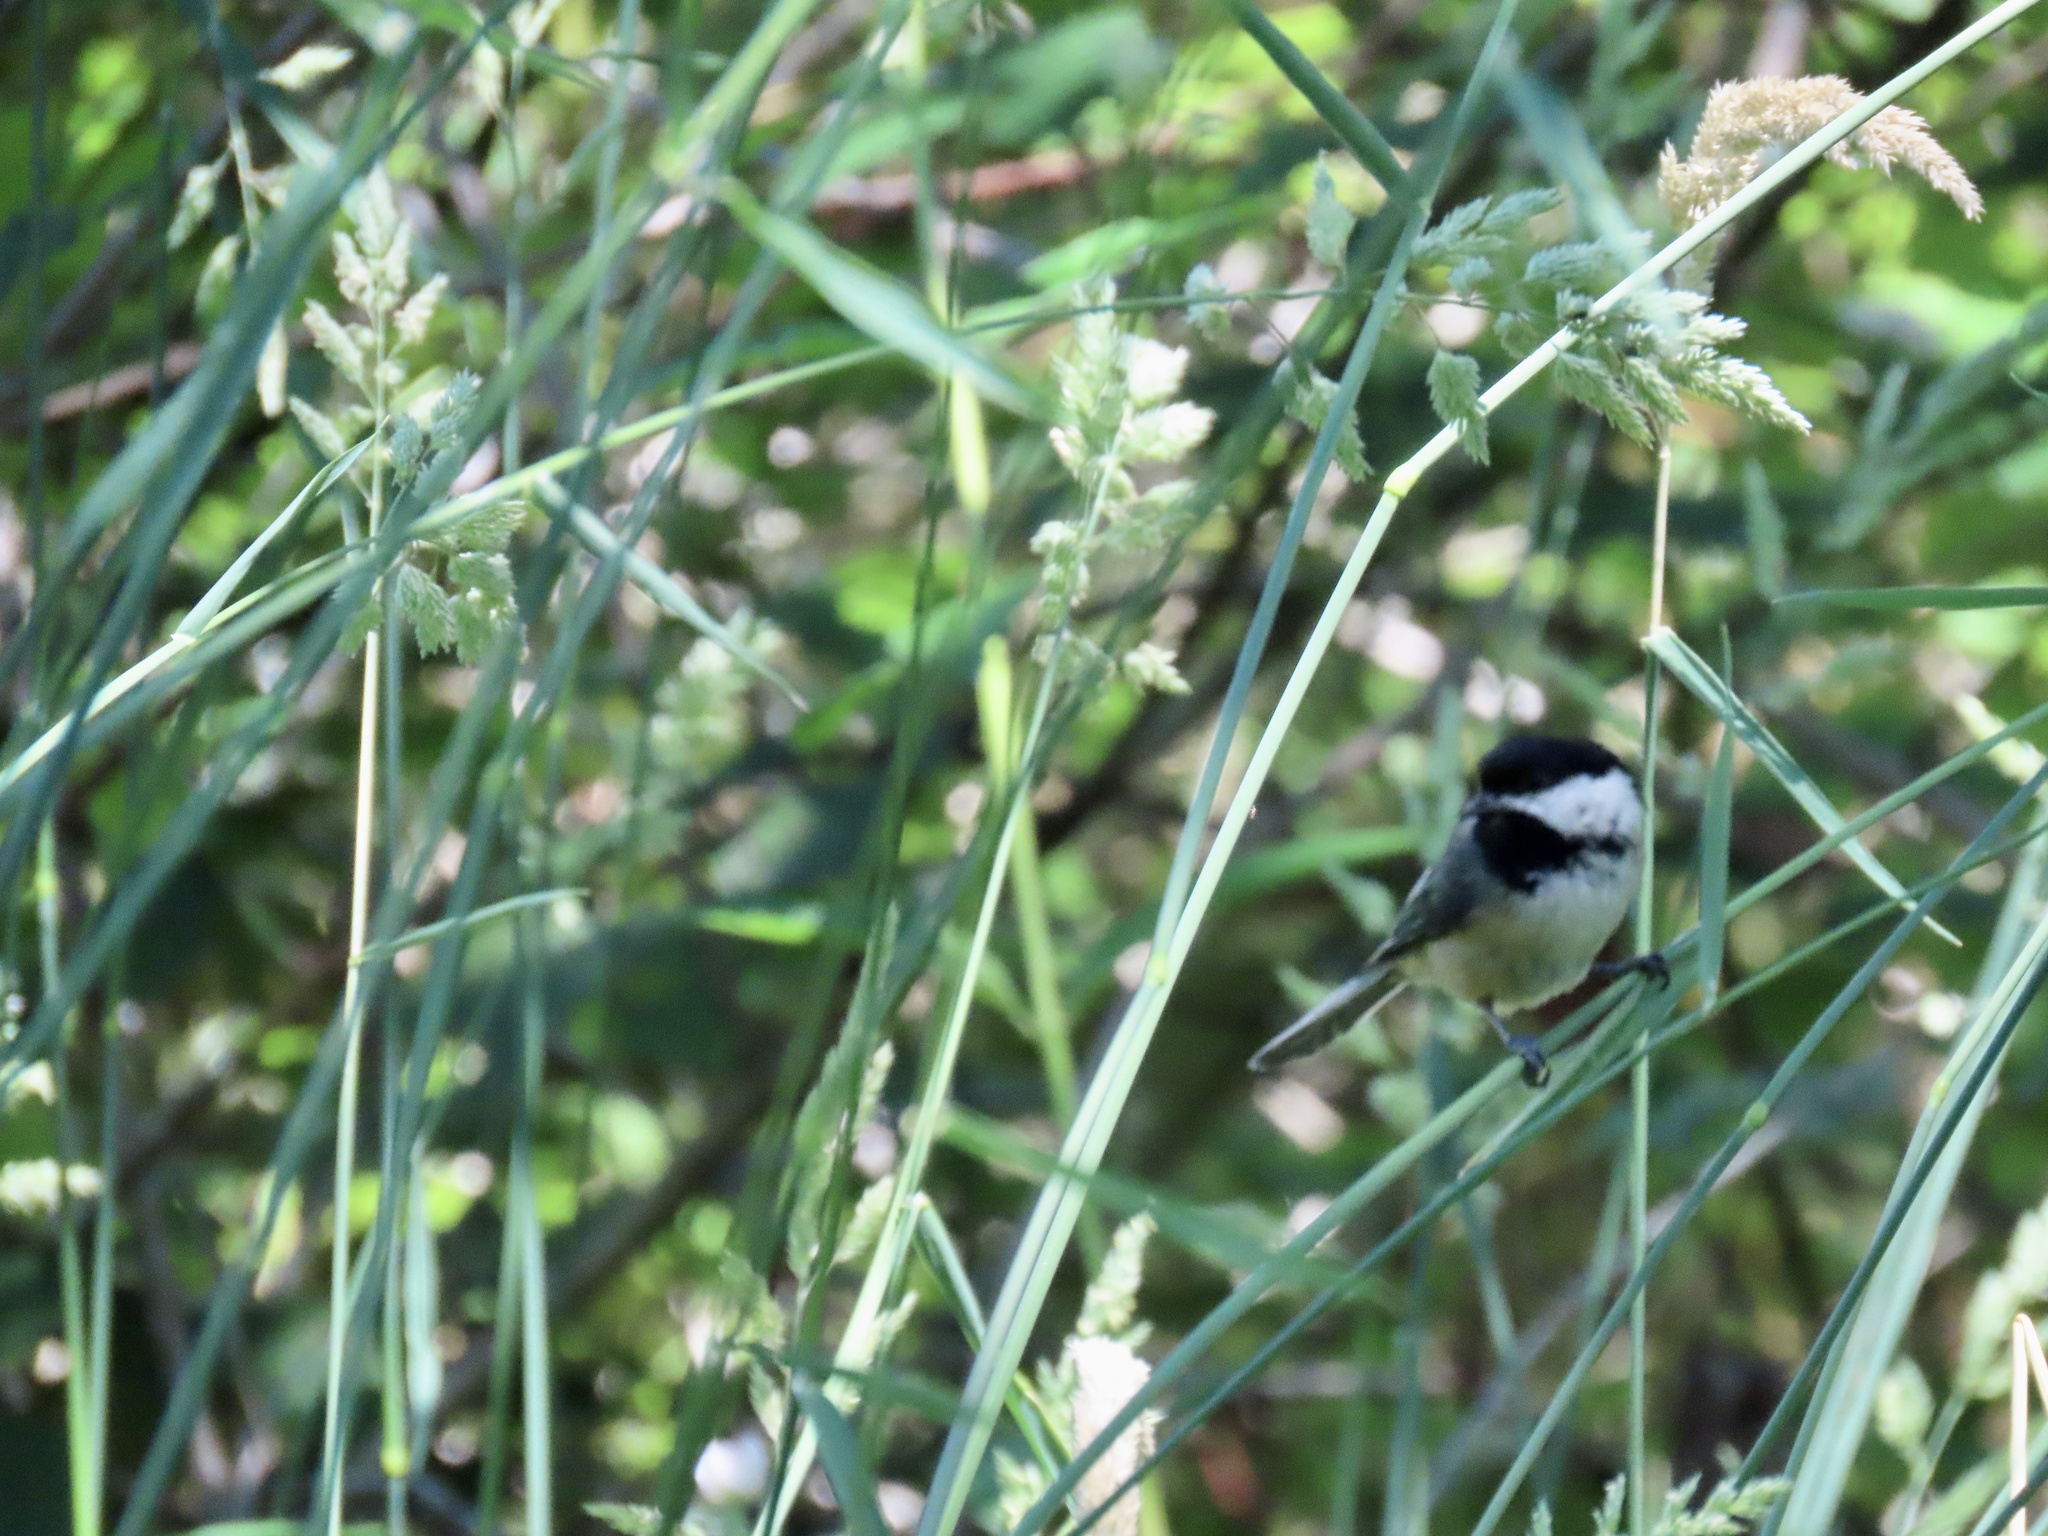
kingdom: Animalia
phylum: Chordata
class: Aves
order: Passeriformes
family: Paridae
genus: Poecile
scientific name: Poecile atricapillus
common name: Black-capped chickadee
